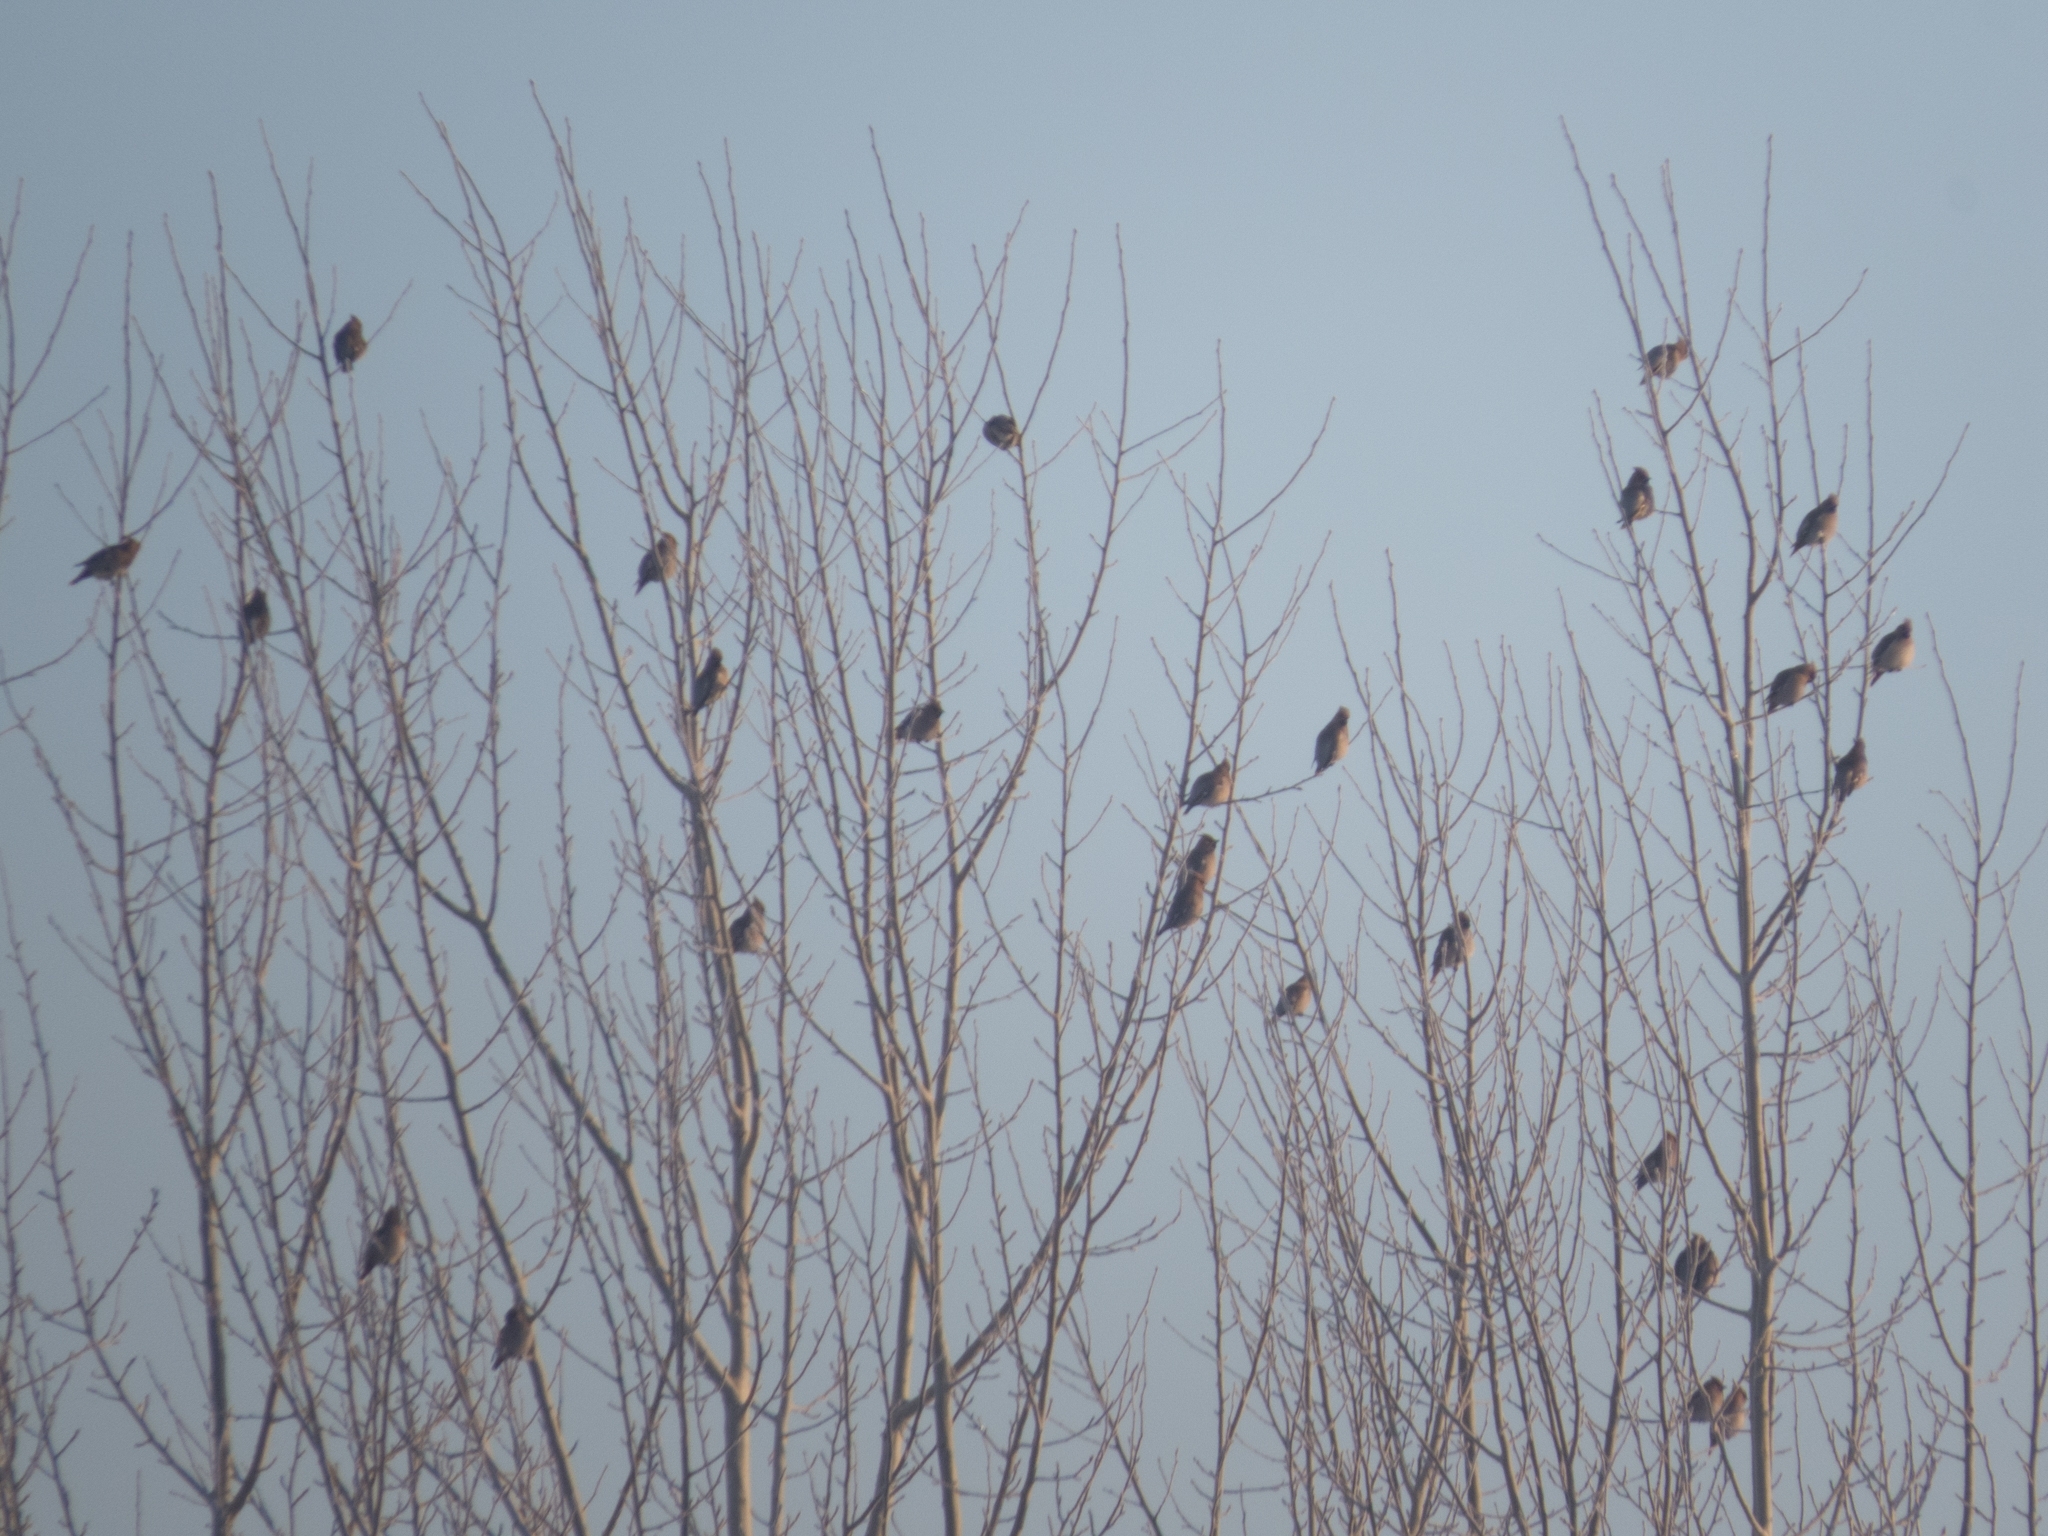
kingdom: Animalia
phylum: Chordata
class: Aves
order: Passeriformes
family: Bombycillidae
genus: Bombycilla
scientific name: Bombycilla garrulus
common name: Bohemian waxwing
